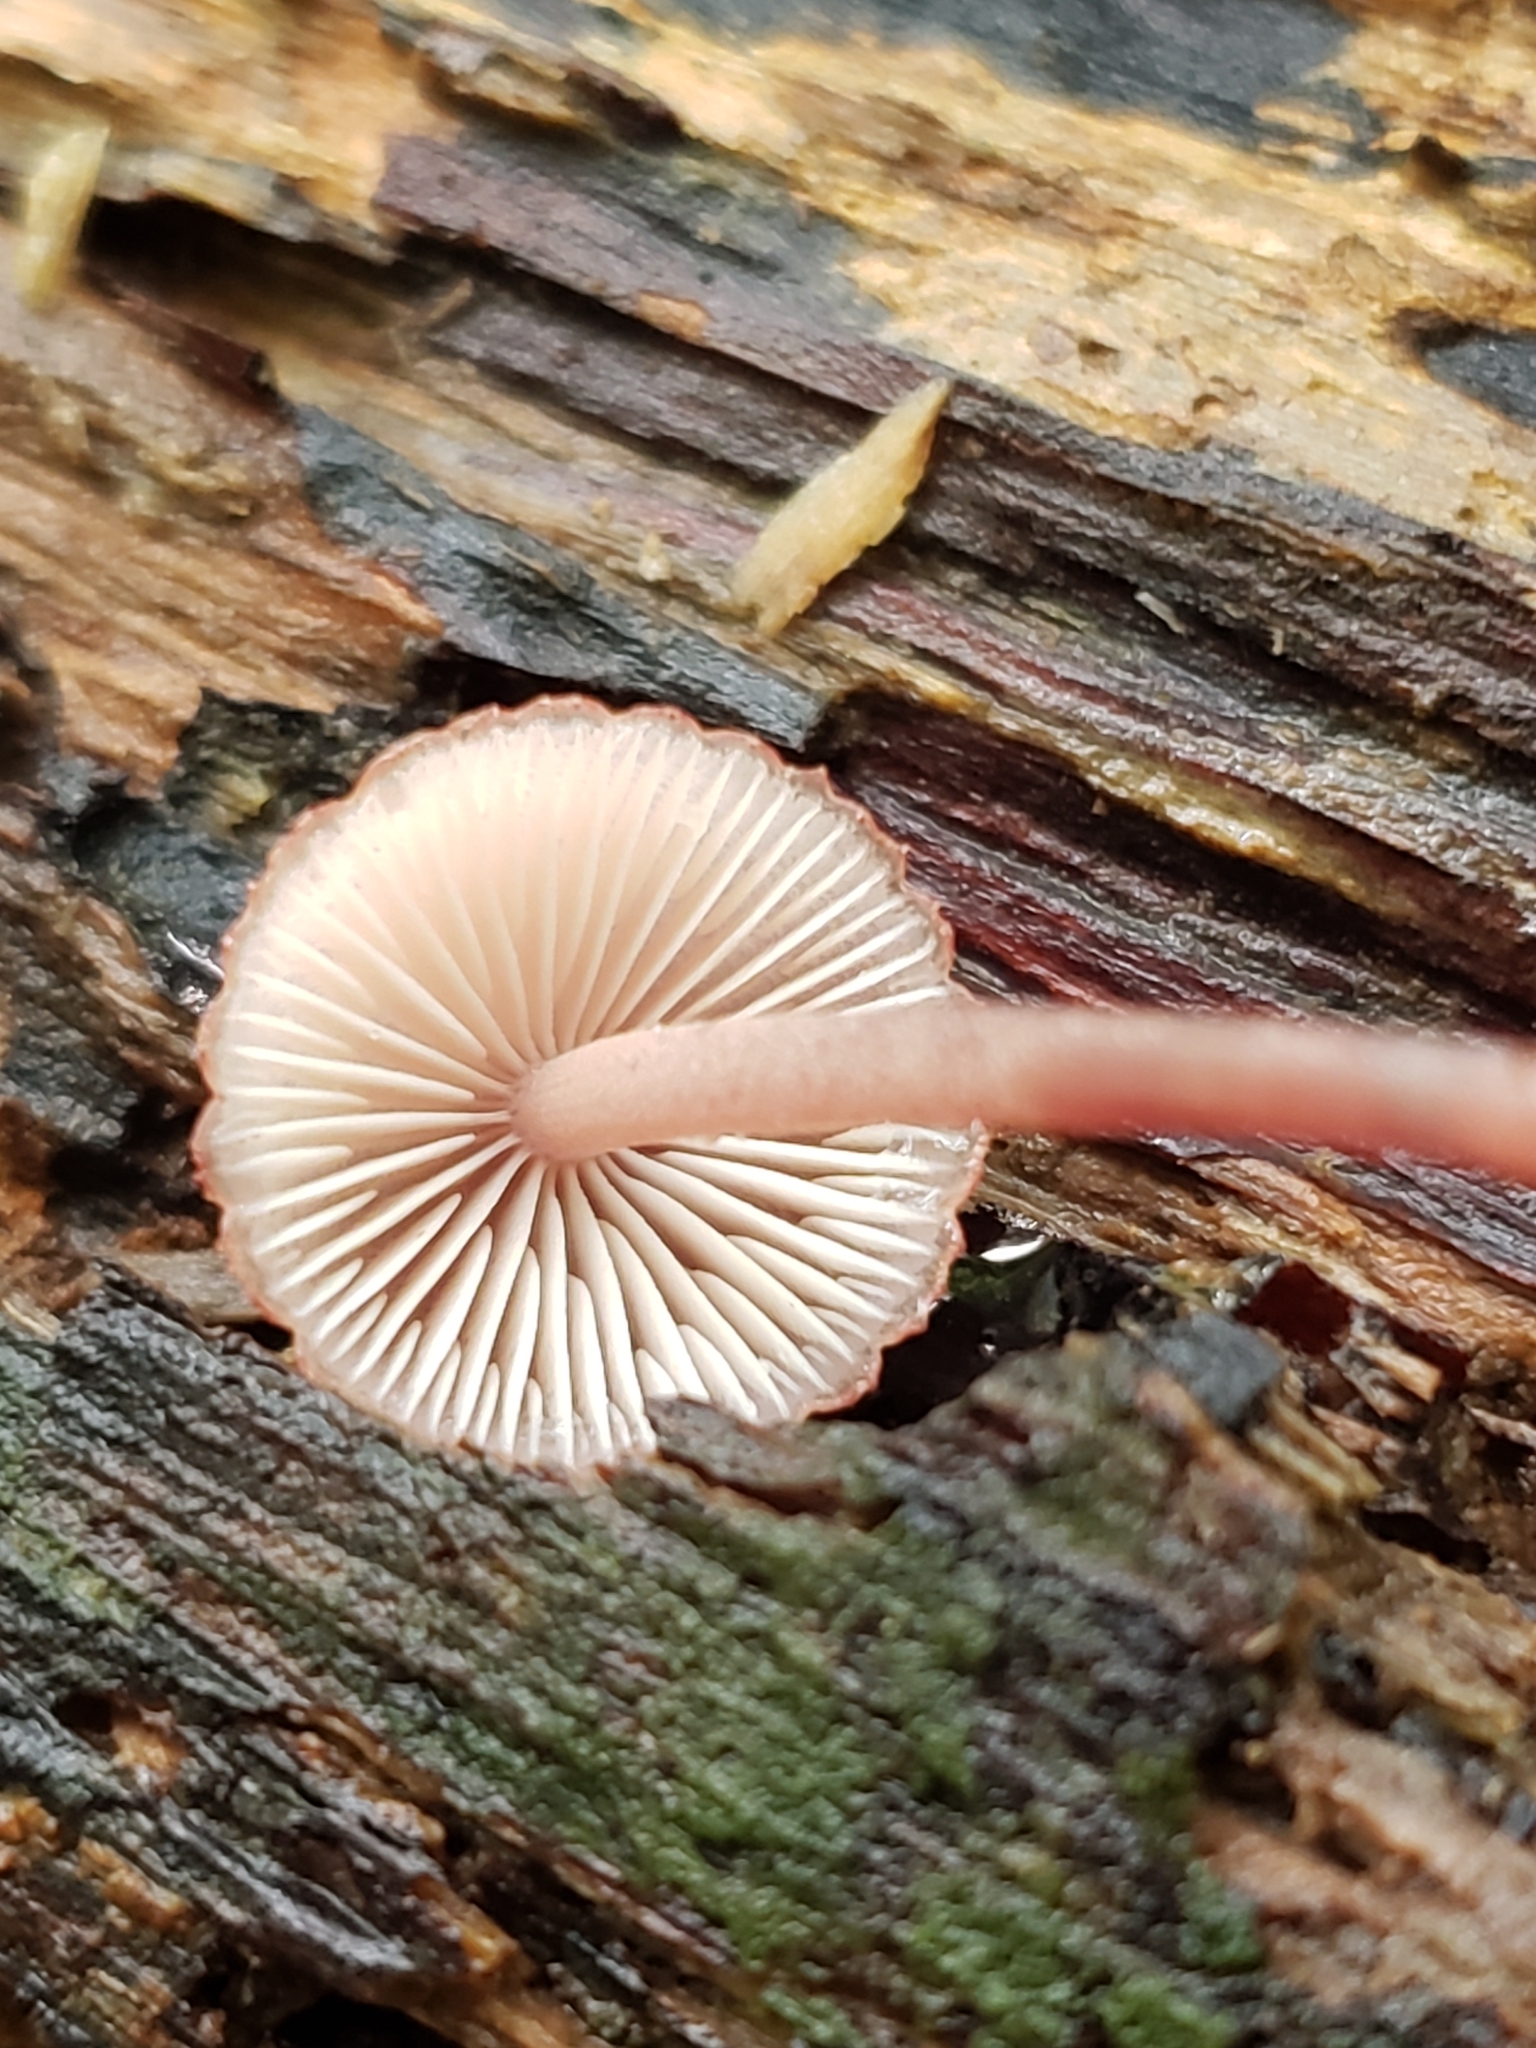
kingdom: Fungi
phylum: Basidiomycota
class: Agaricomycetes
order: Agaricales
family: Mycenaceae
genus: Mycena
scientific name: Mycena haematopus
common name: Burgundydrop bonnet
